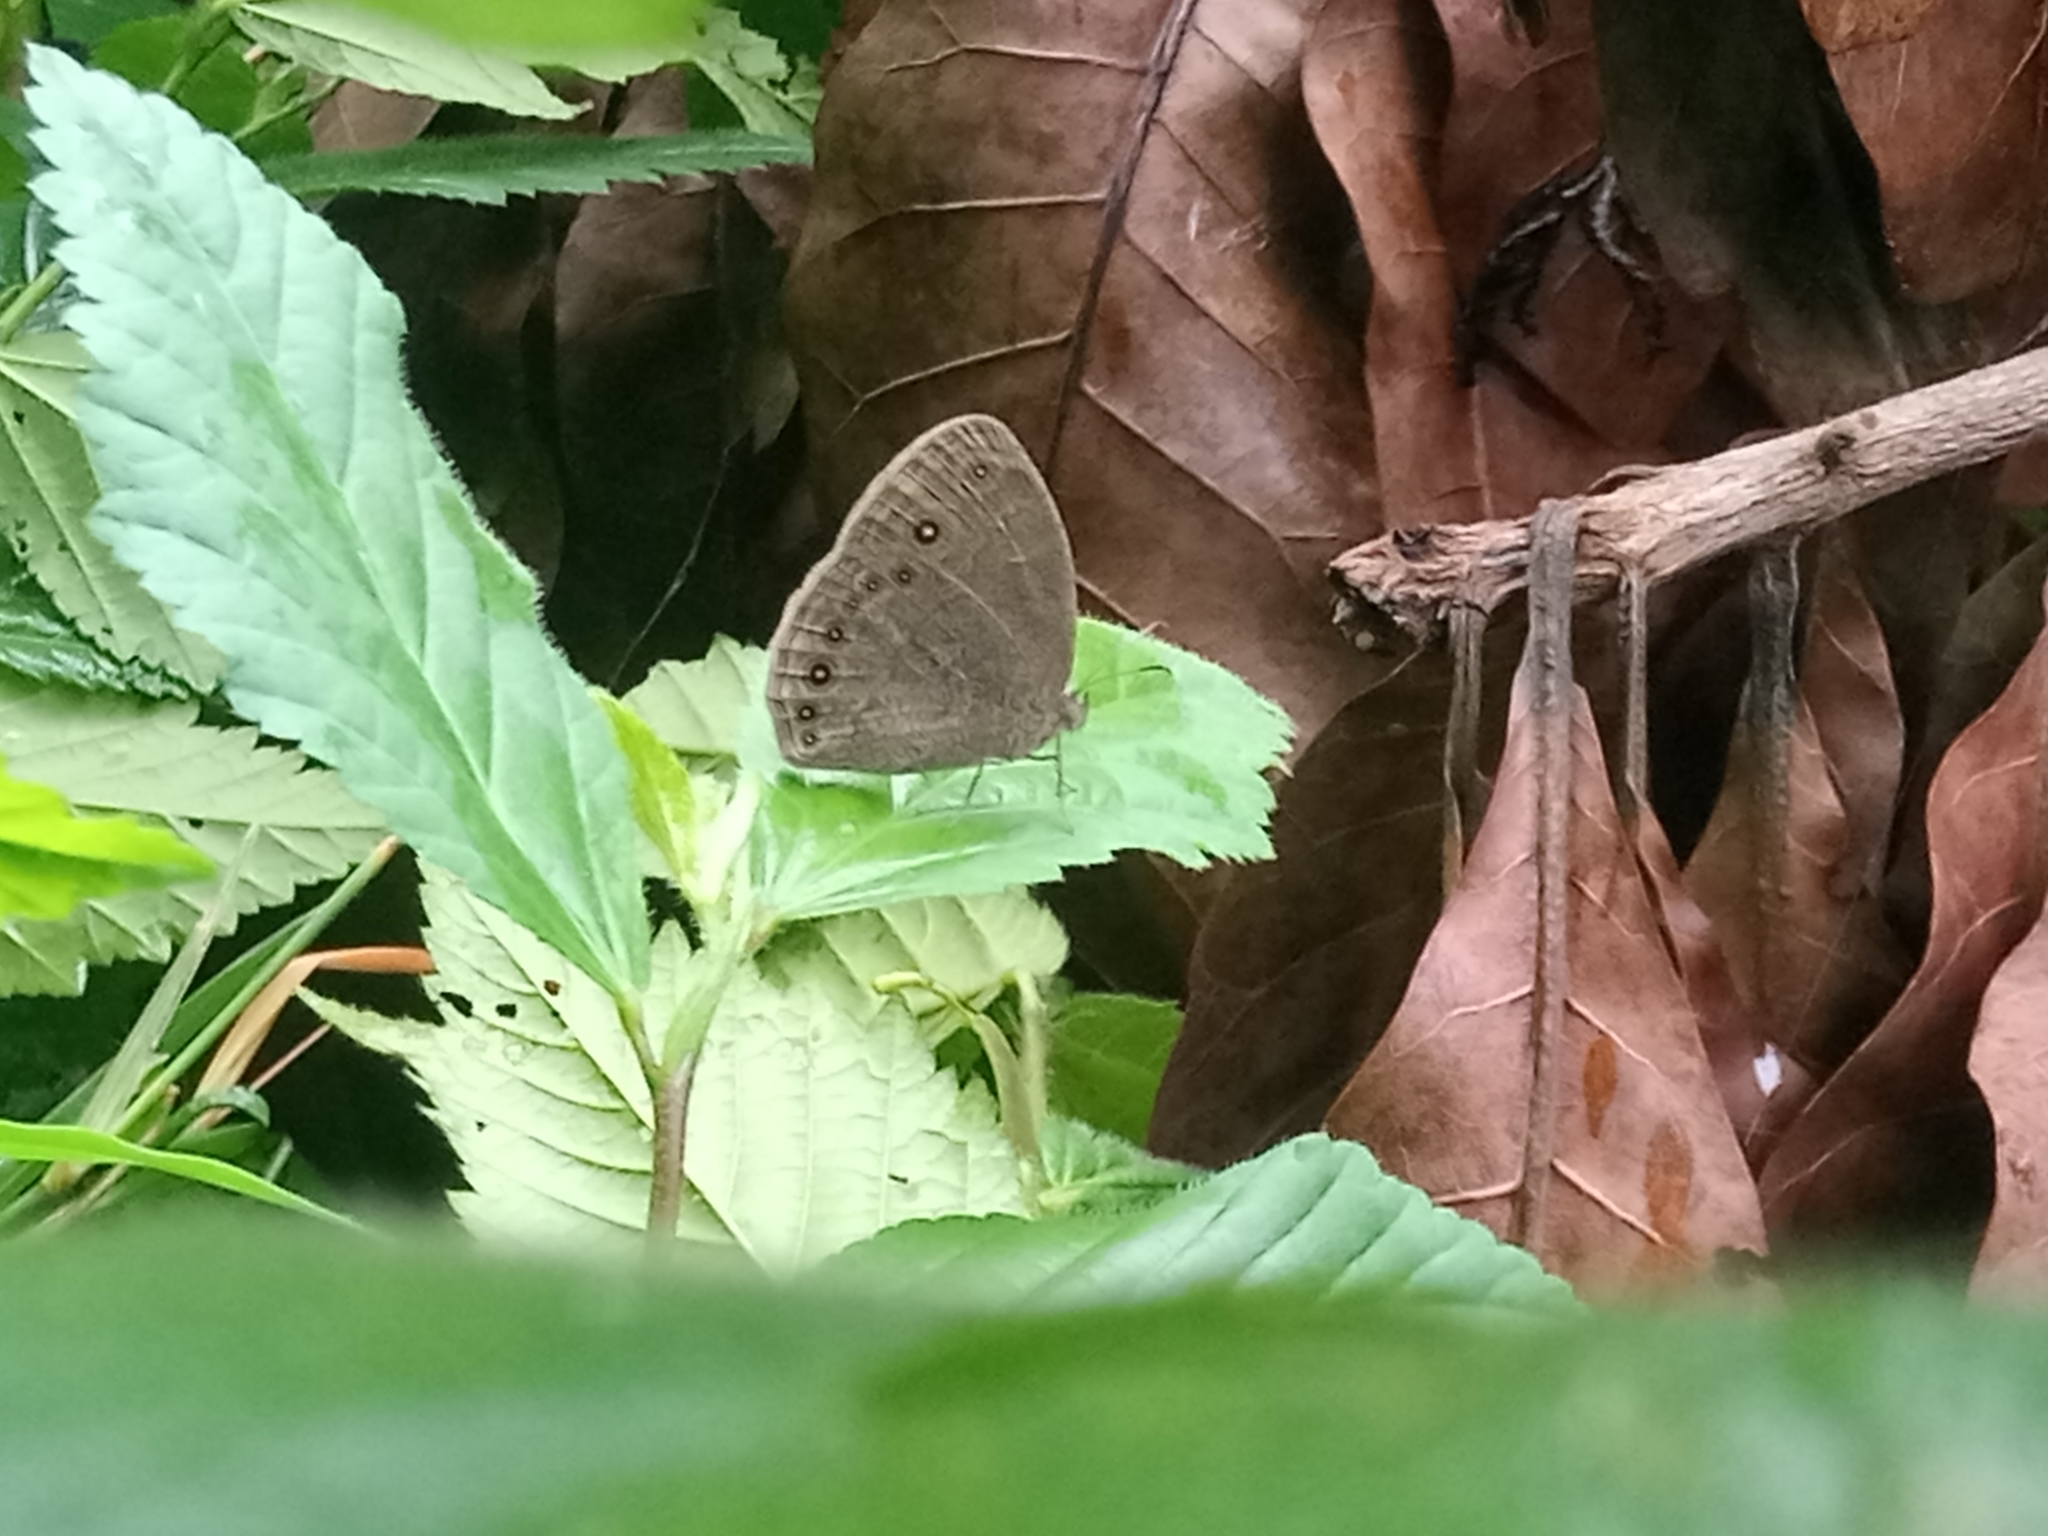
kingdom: Animalia
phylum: Arthropoda
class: Insecta
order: Lepidoptera
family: Nymphalidae
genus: Mycalesis
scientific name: Mycalesis vulgaris
